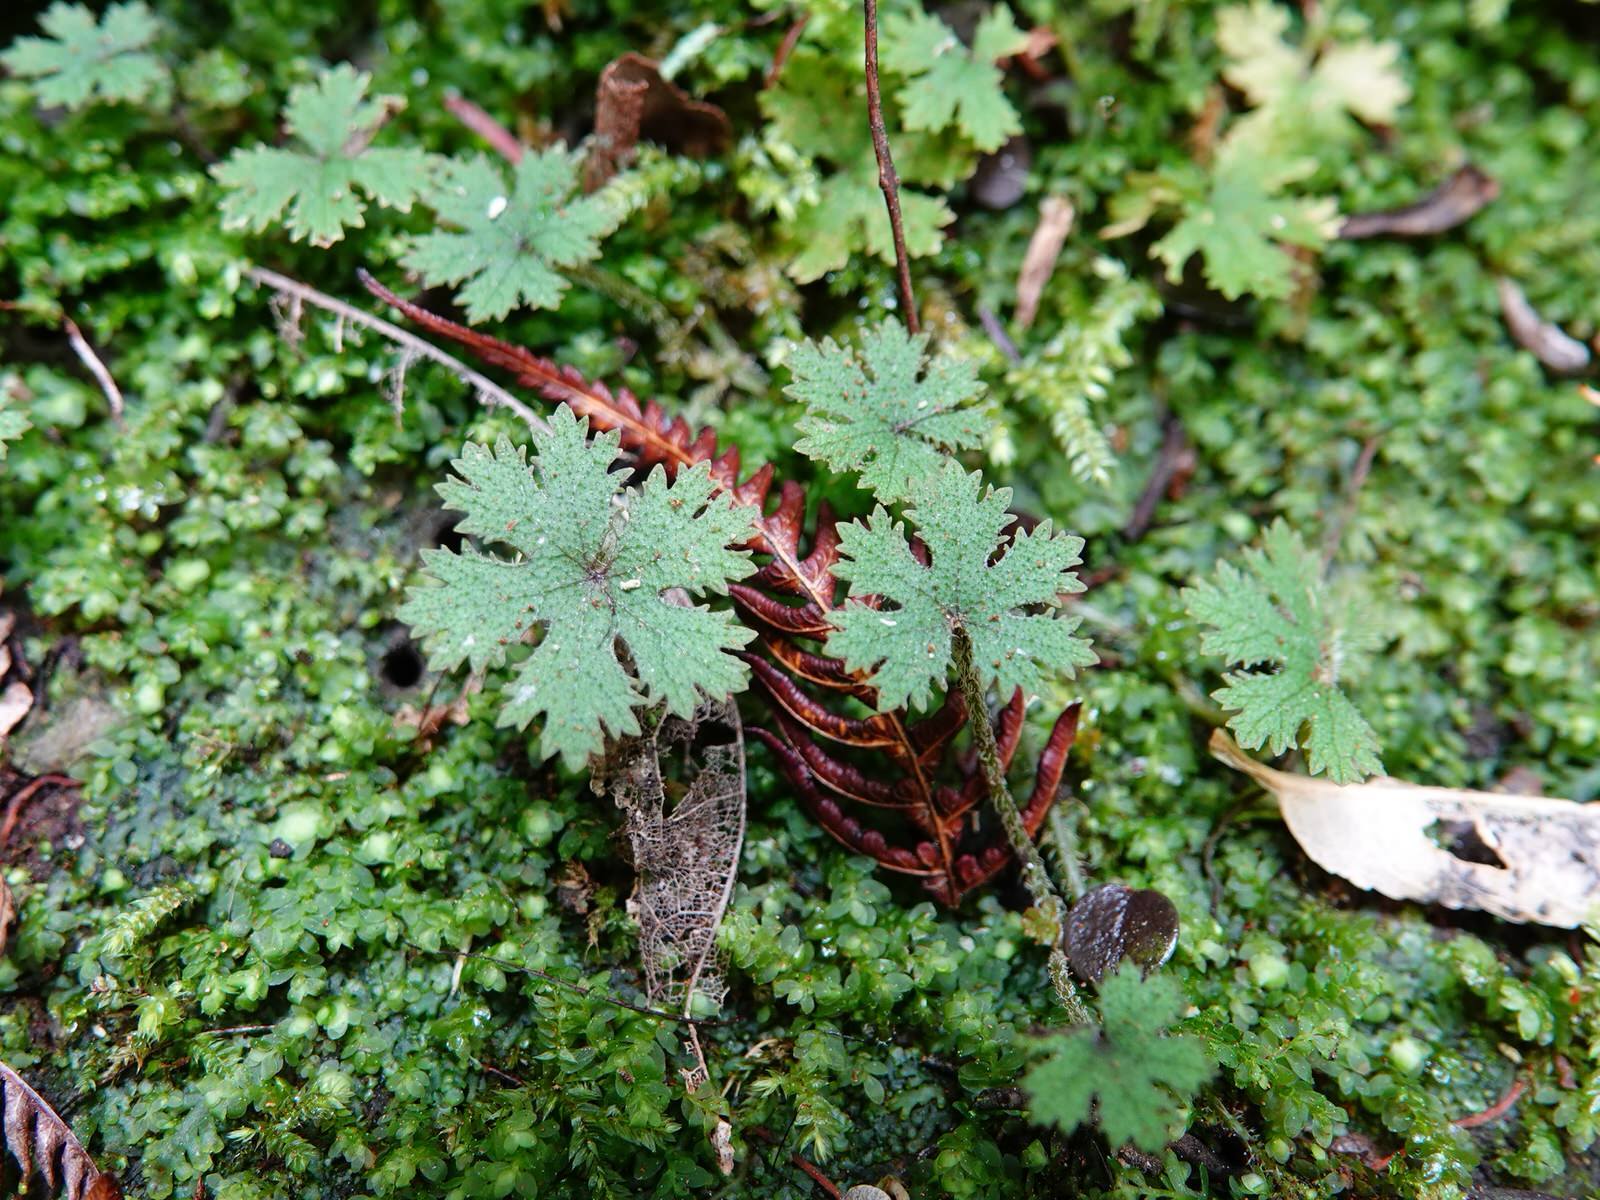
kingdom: Plantae
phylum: Tracheophyta
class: Magnoliopsida
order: Apiales
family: Araliaceae
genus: Hydrocotyle
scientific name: Hydrocotyle dissecta
